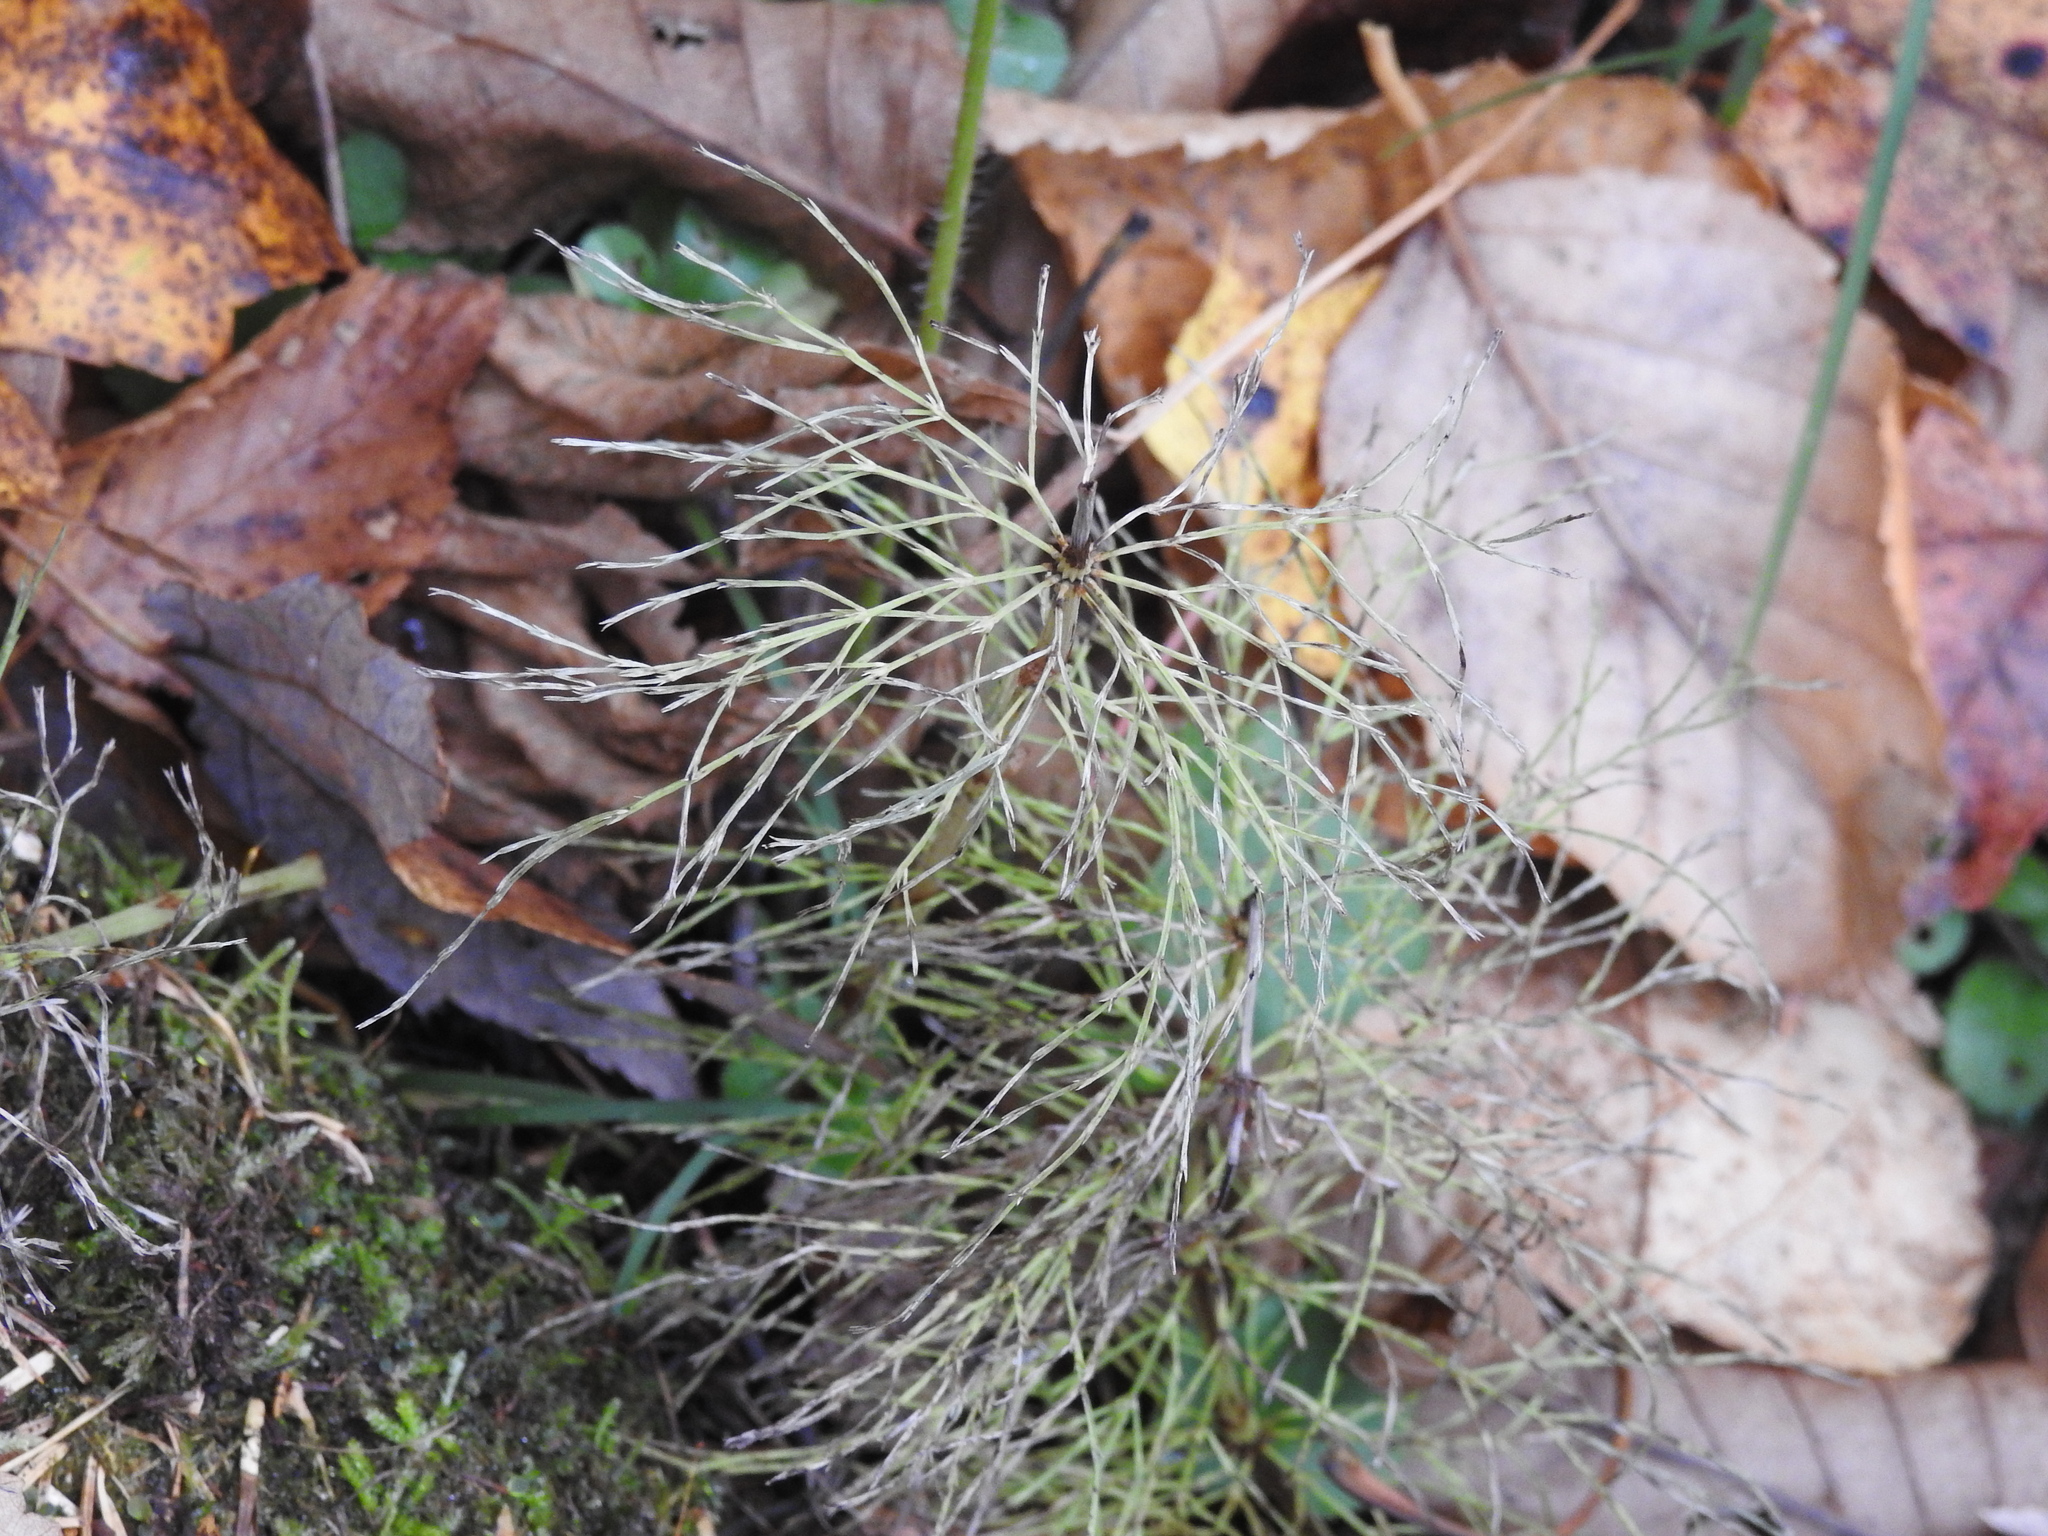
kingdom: Plantae
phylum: Tracheophyta
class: Polypodiopsida
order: Equisetales
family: Equisetaceae
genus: Equisetum
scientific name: Equisetum sylvaticum
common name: Wood horsetail
